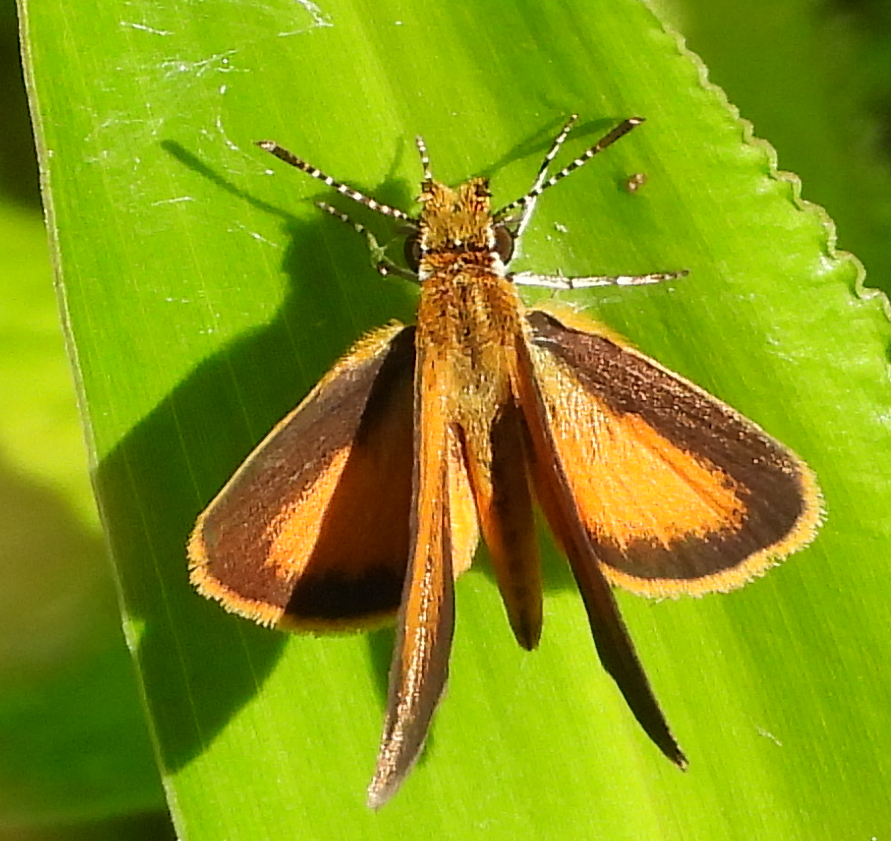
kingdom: Animalia
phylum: Arthropoda
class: Insecta
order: Lepidoptera
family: Hesperiidae
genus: Ancyloxypha
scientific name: Ancyloxypha numitor
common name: Least skipper
